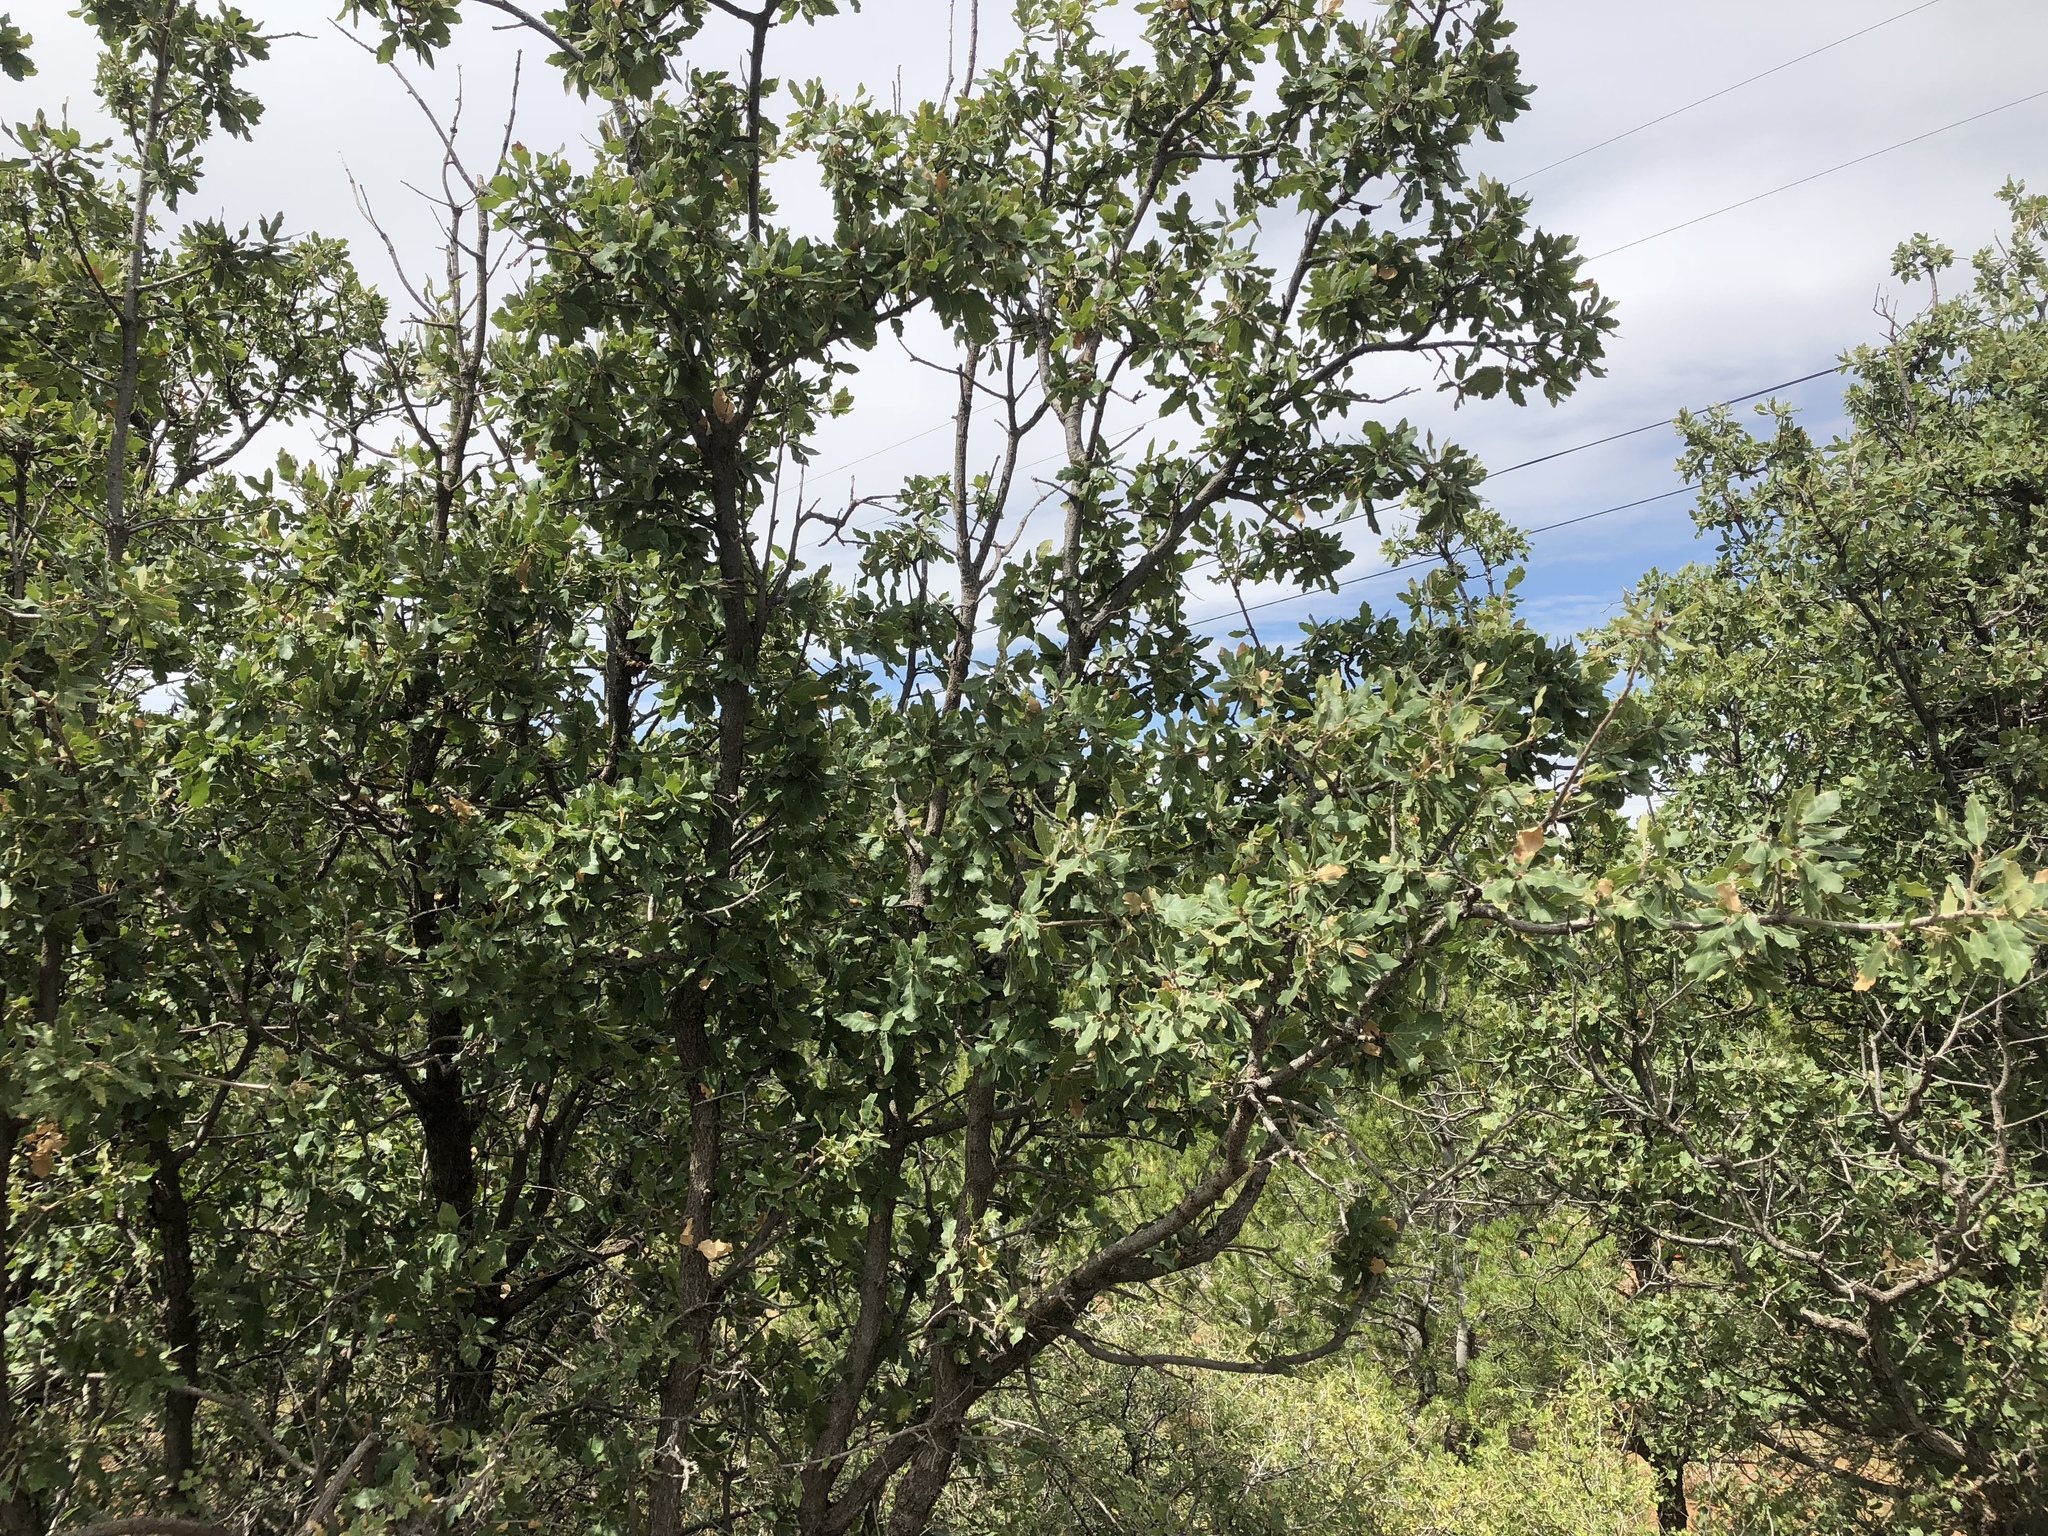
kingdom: Plantae
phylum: Tracheophyta
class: Magnoliopsida
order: Fagales
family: Fagaceae
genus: Quercus
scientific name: Quercus gambelii
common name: Gambel oak
